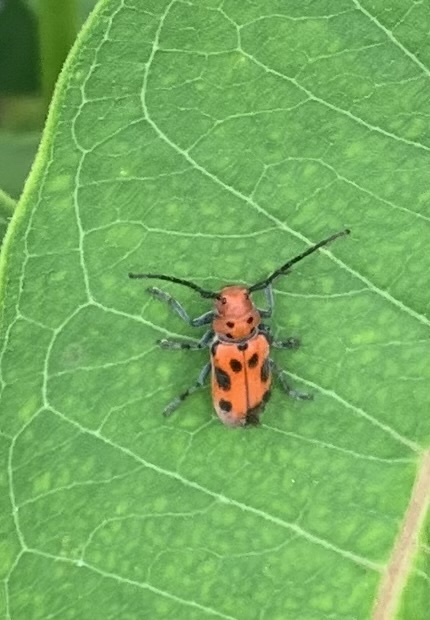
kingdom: Animalia
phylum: Arthropoda
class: Insecta
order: Coleoptera
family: Cerambycidae
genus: Tetraopes
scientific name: Tetraopes tetrophthalmus
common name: Red milkweed beetle
